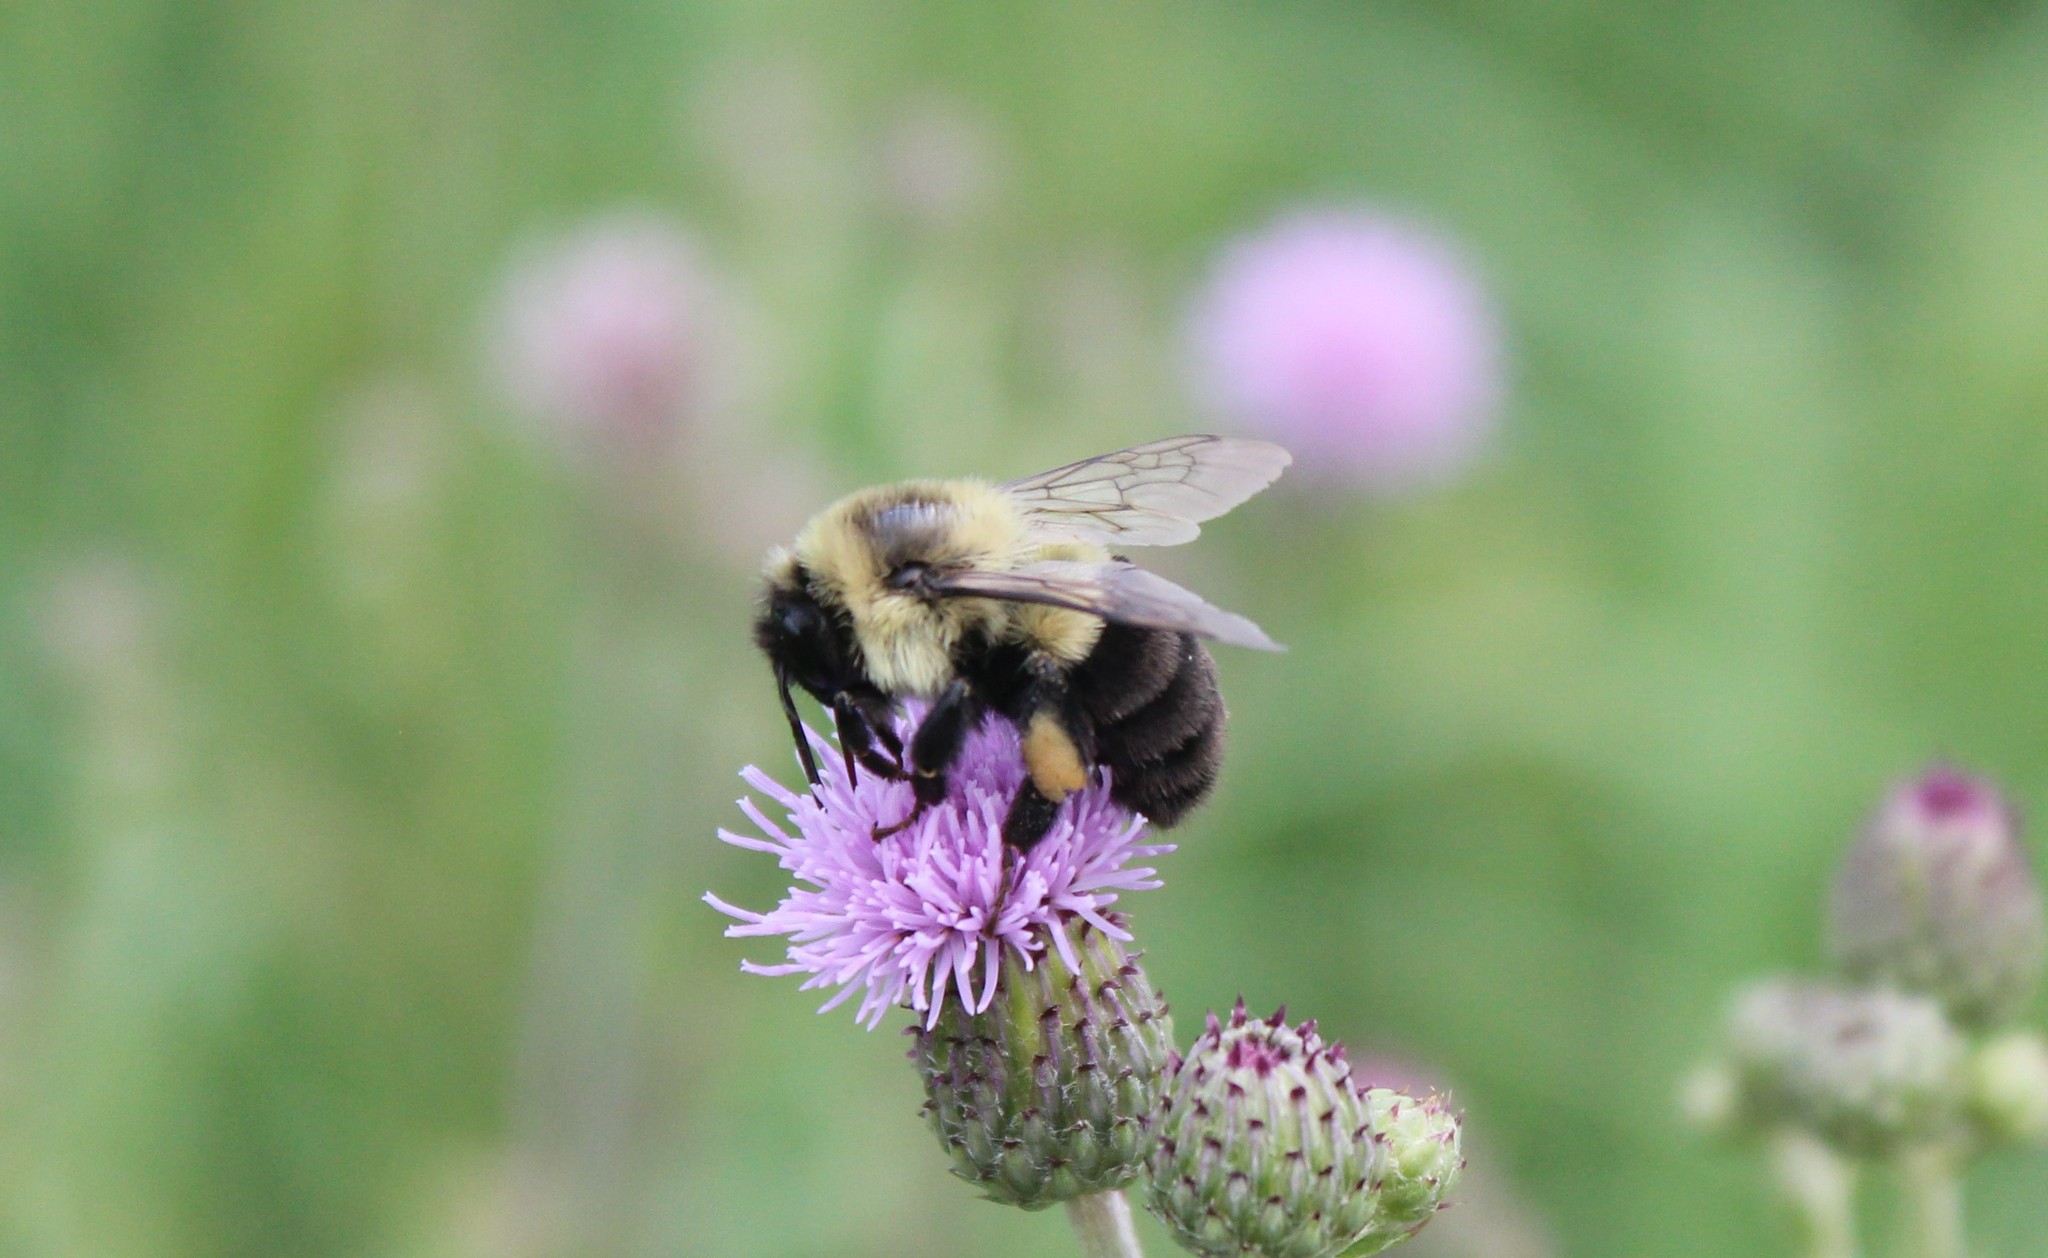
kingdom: Animalia
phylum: Arthropoda
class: Insecta
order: Hymenoptera
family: Apidae
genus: Bombus
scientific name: Bombus impatiens
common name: Common eastern bumble bee
